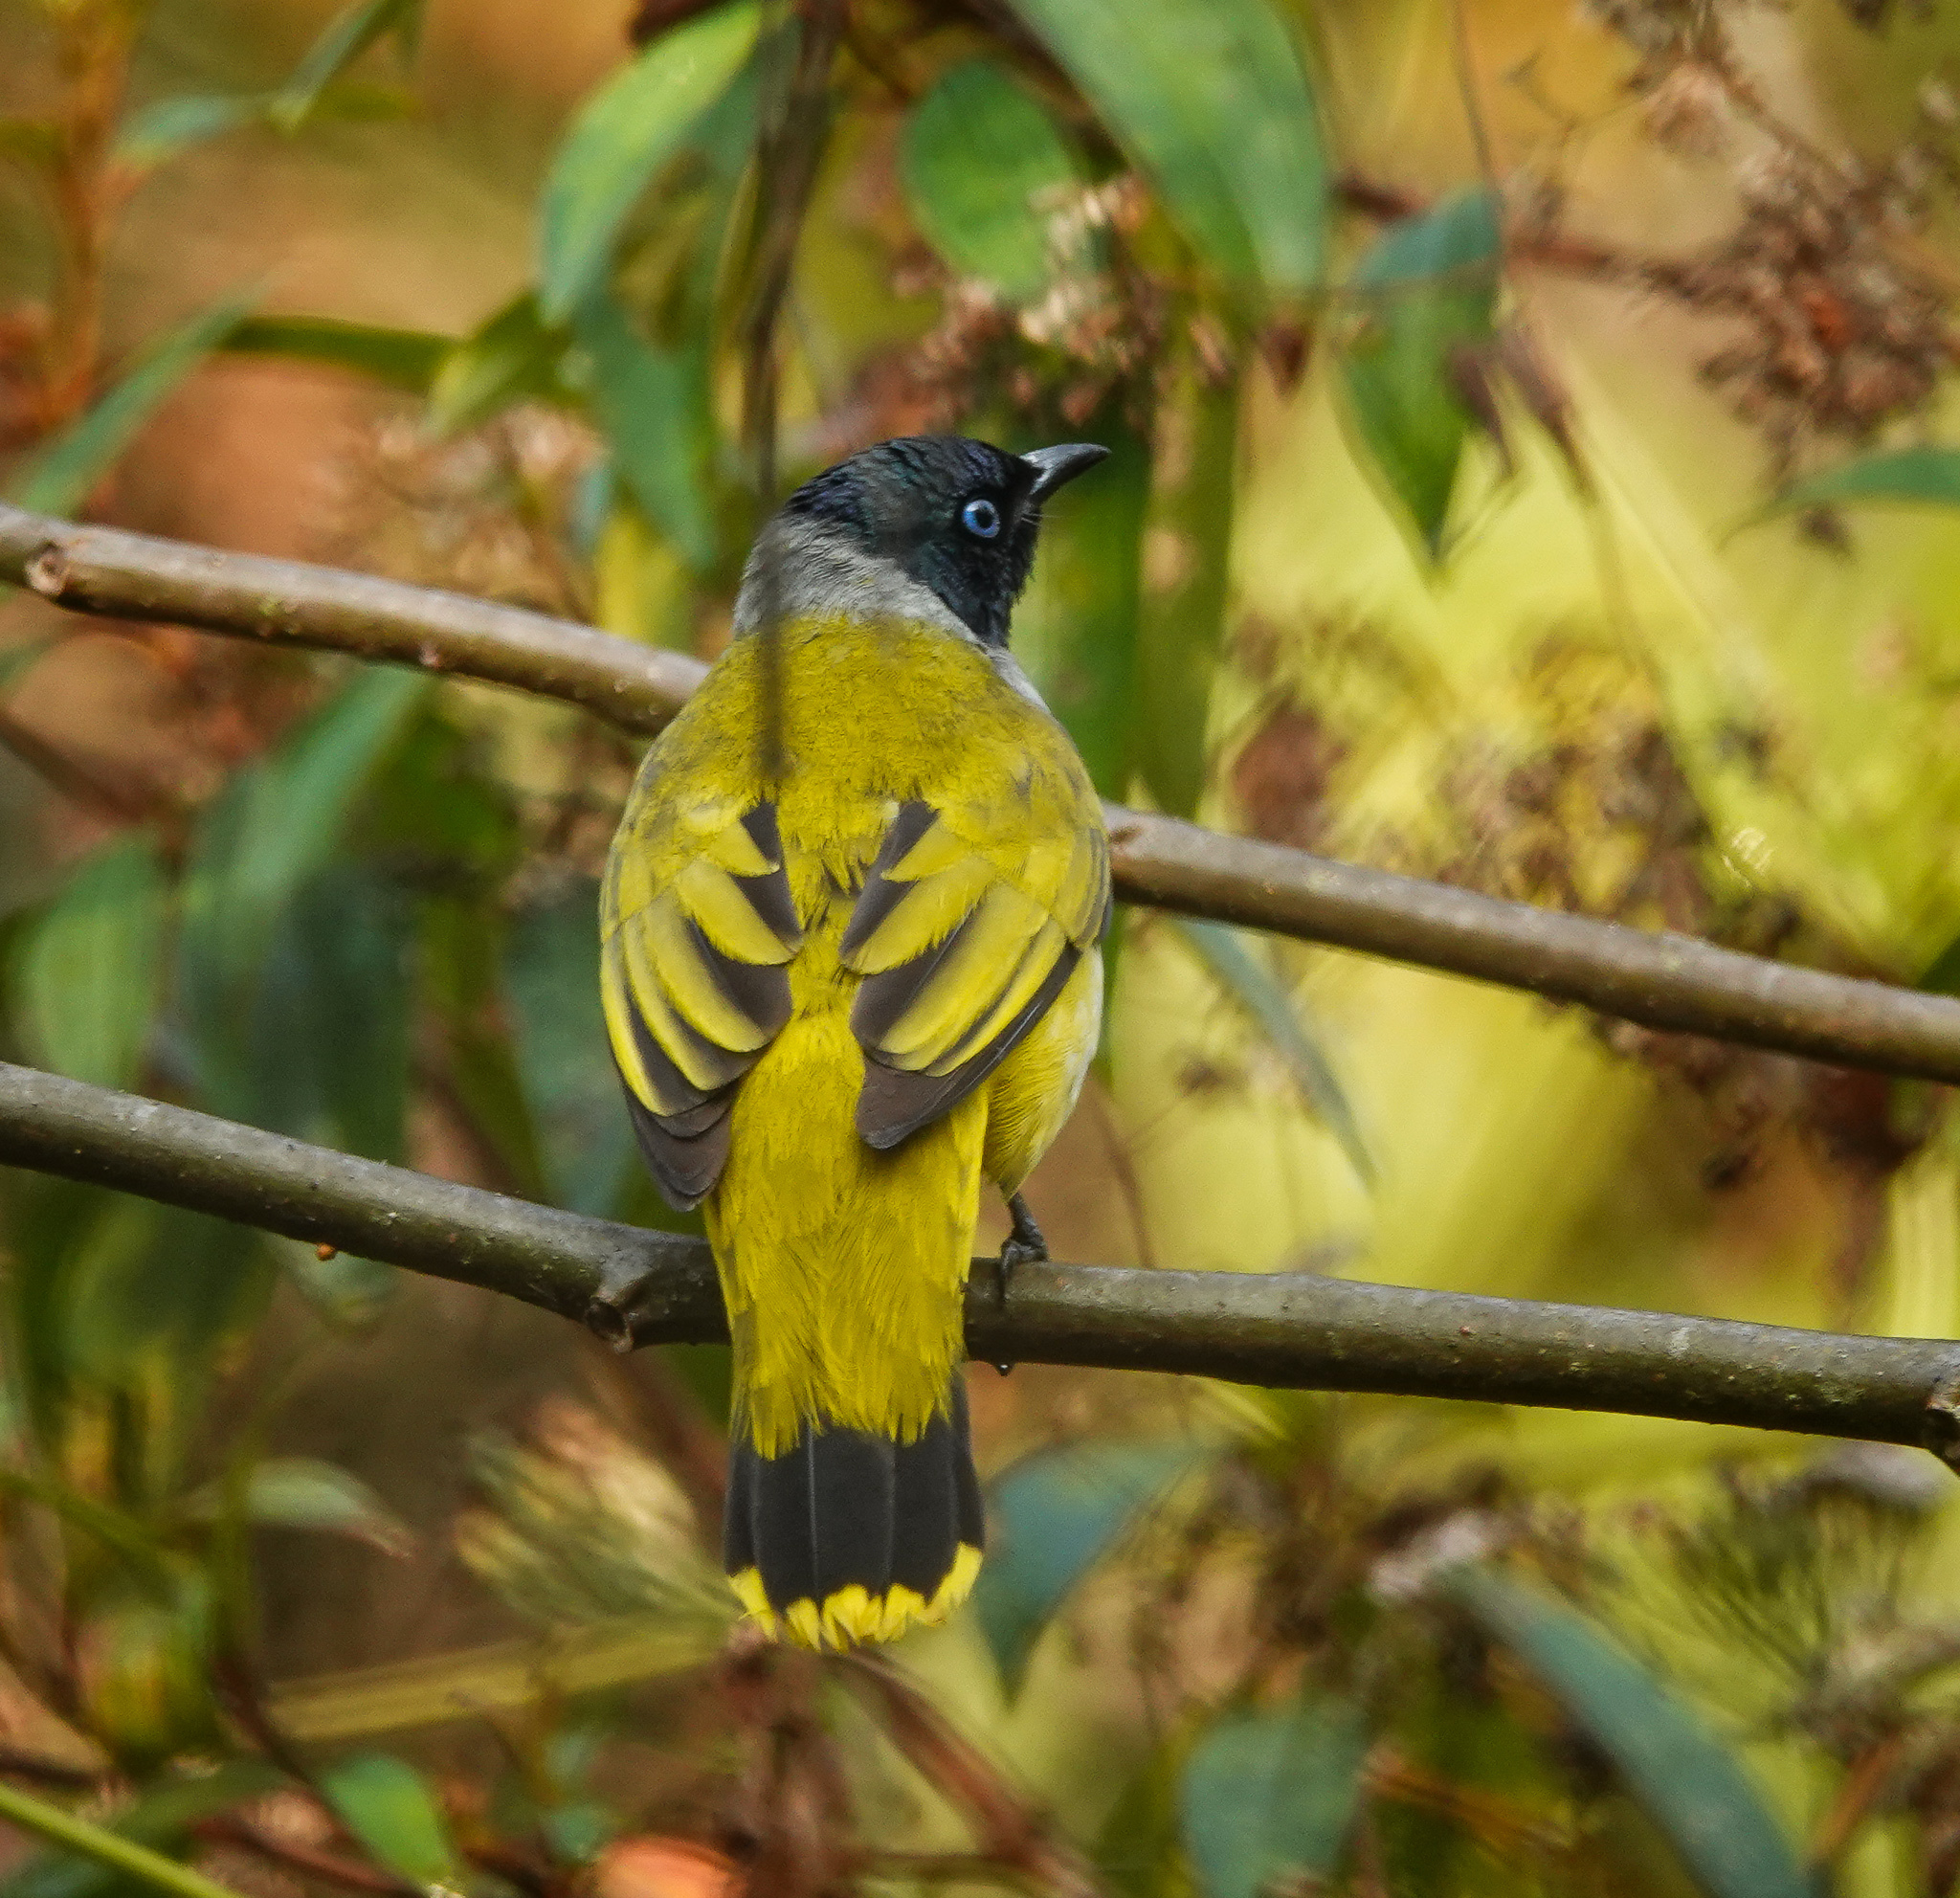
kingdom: Animalia
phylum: Chordata
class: Aves
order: Passeriformes
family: Pycnonotidae
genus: Microtarsus
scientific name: Microtarsus
